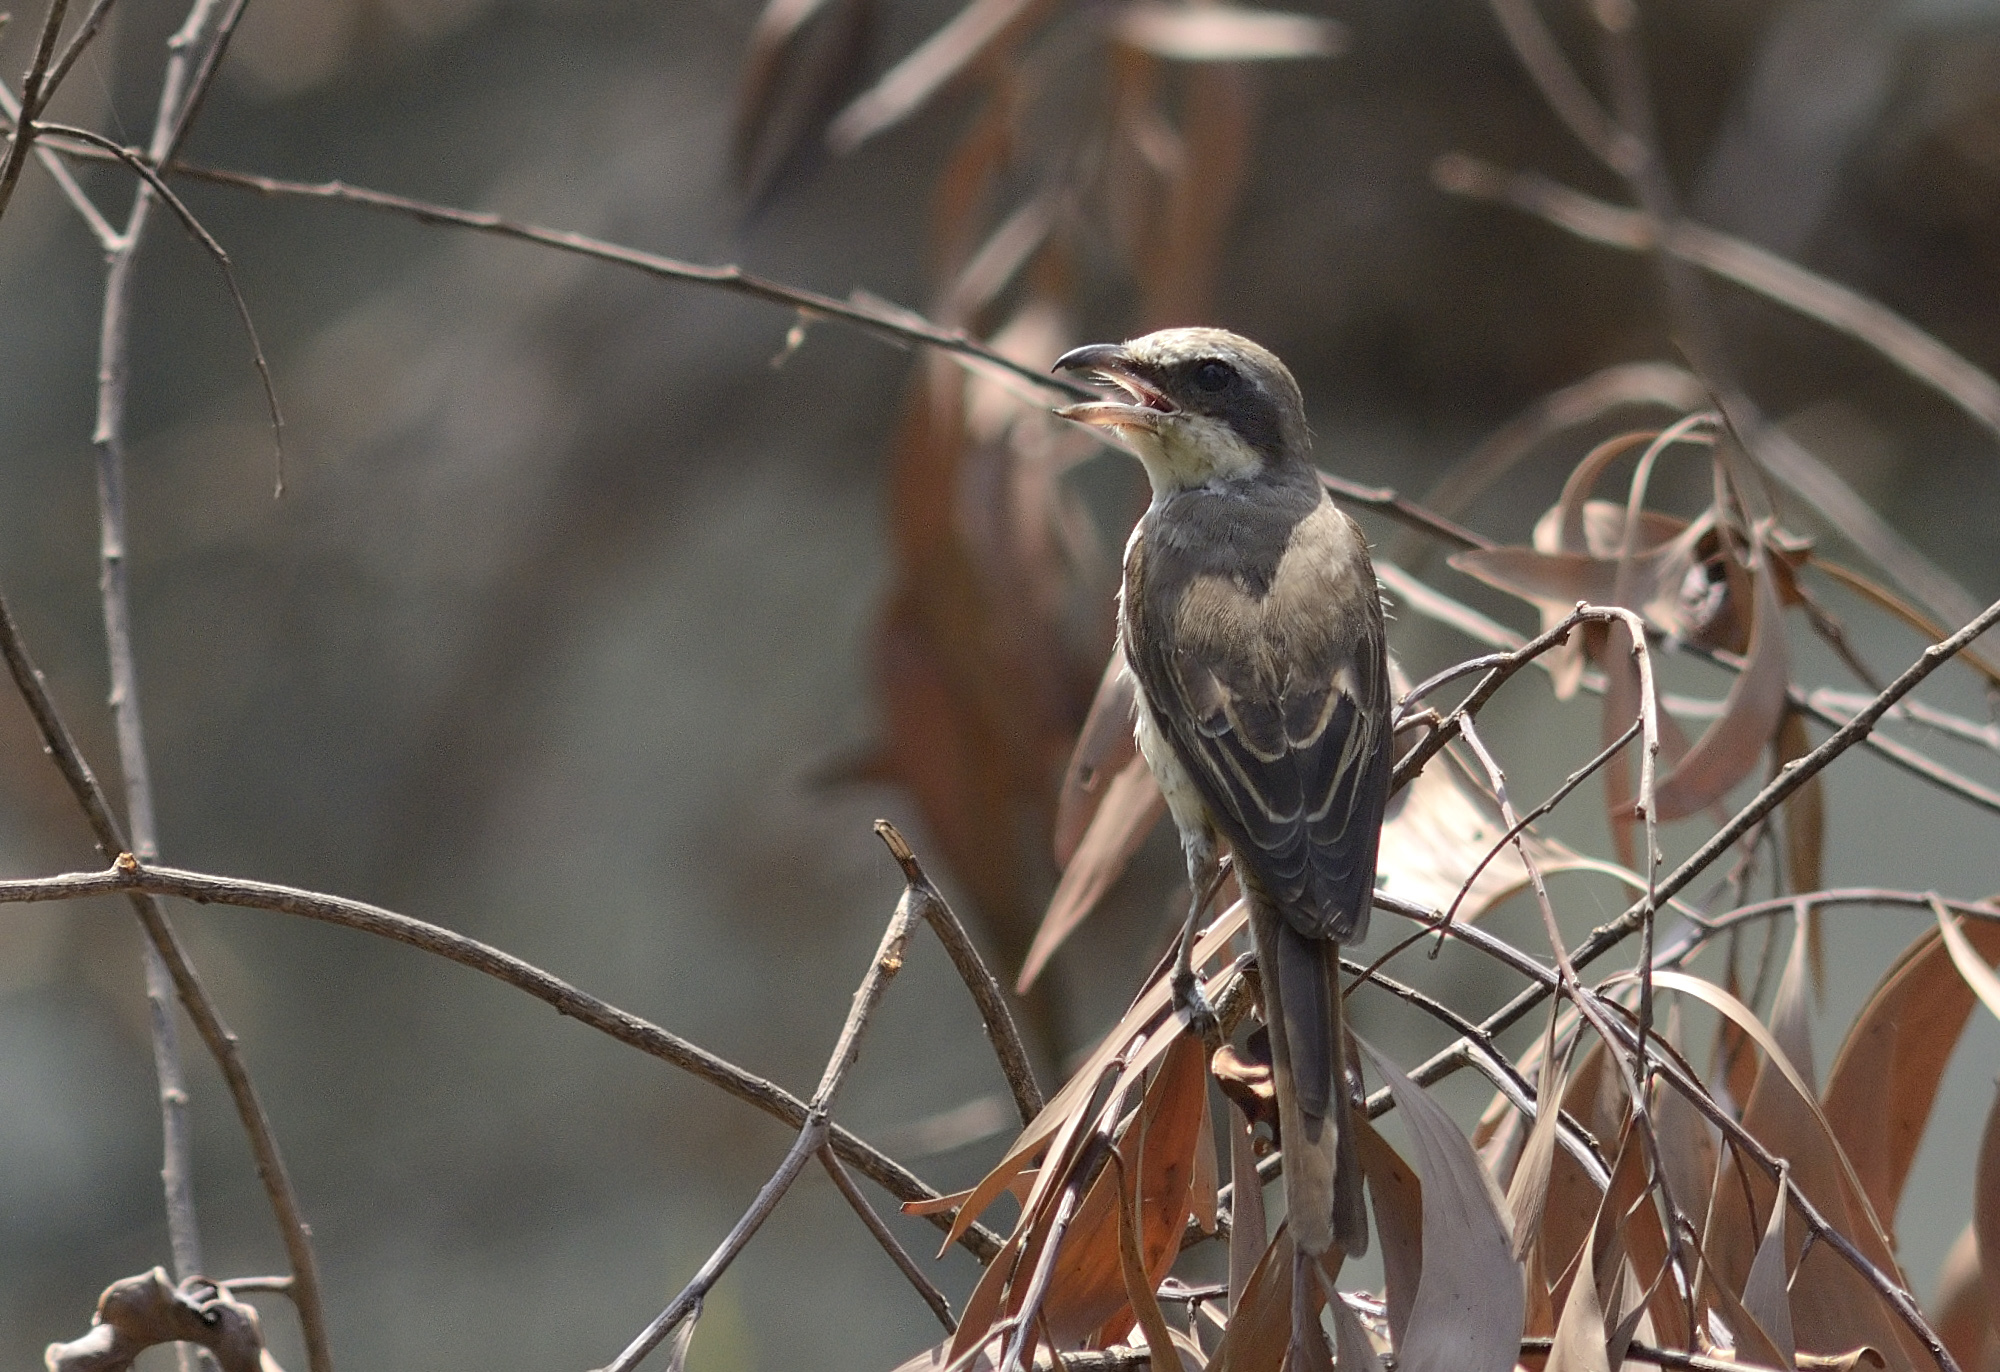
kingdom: Animalia
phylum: Chordata
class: Aves
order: Passeriformes
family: Laniidae
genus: Lanius
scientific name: Lanius cristatus
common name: Brown shrike
